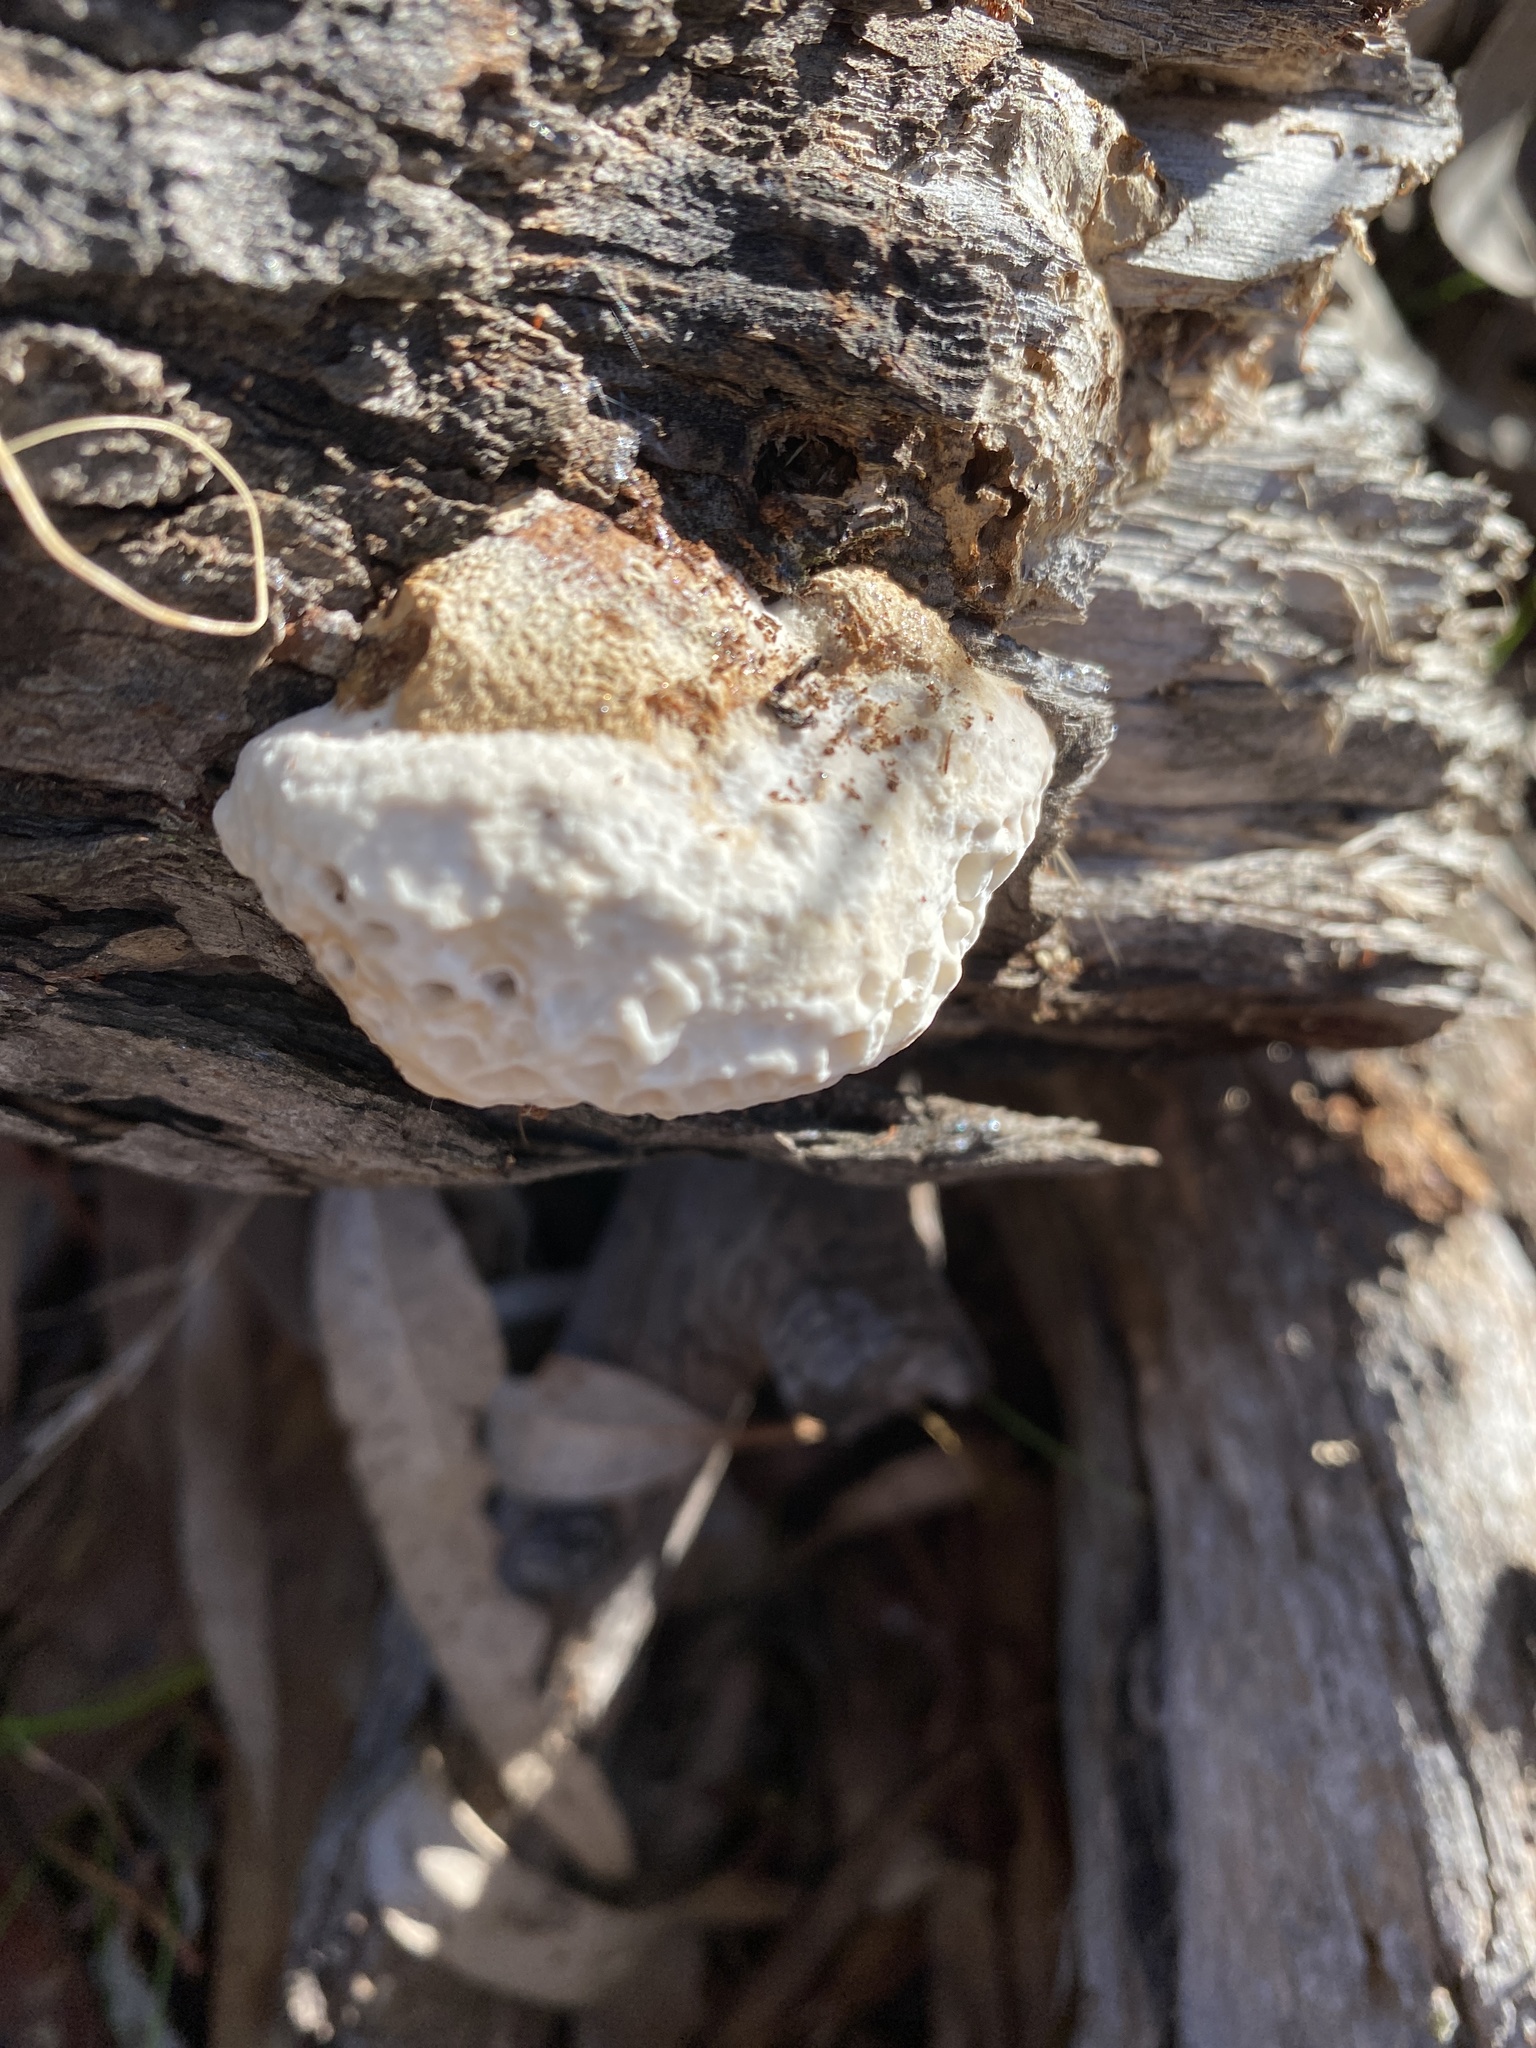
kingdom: Fungi
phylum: Basidiomycota
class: Agaricomycetes
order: Polyporales
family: Polyporaceae
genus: Hexagonia
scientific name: Hexagonia vesparia
